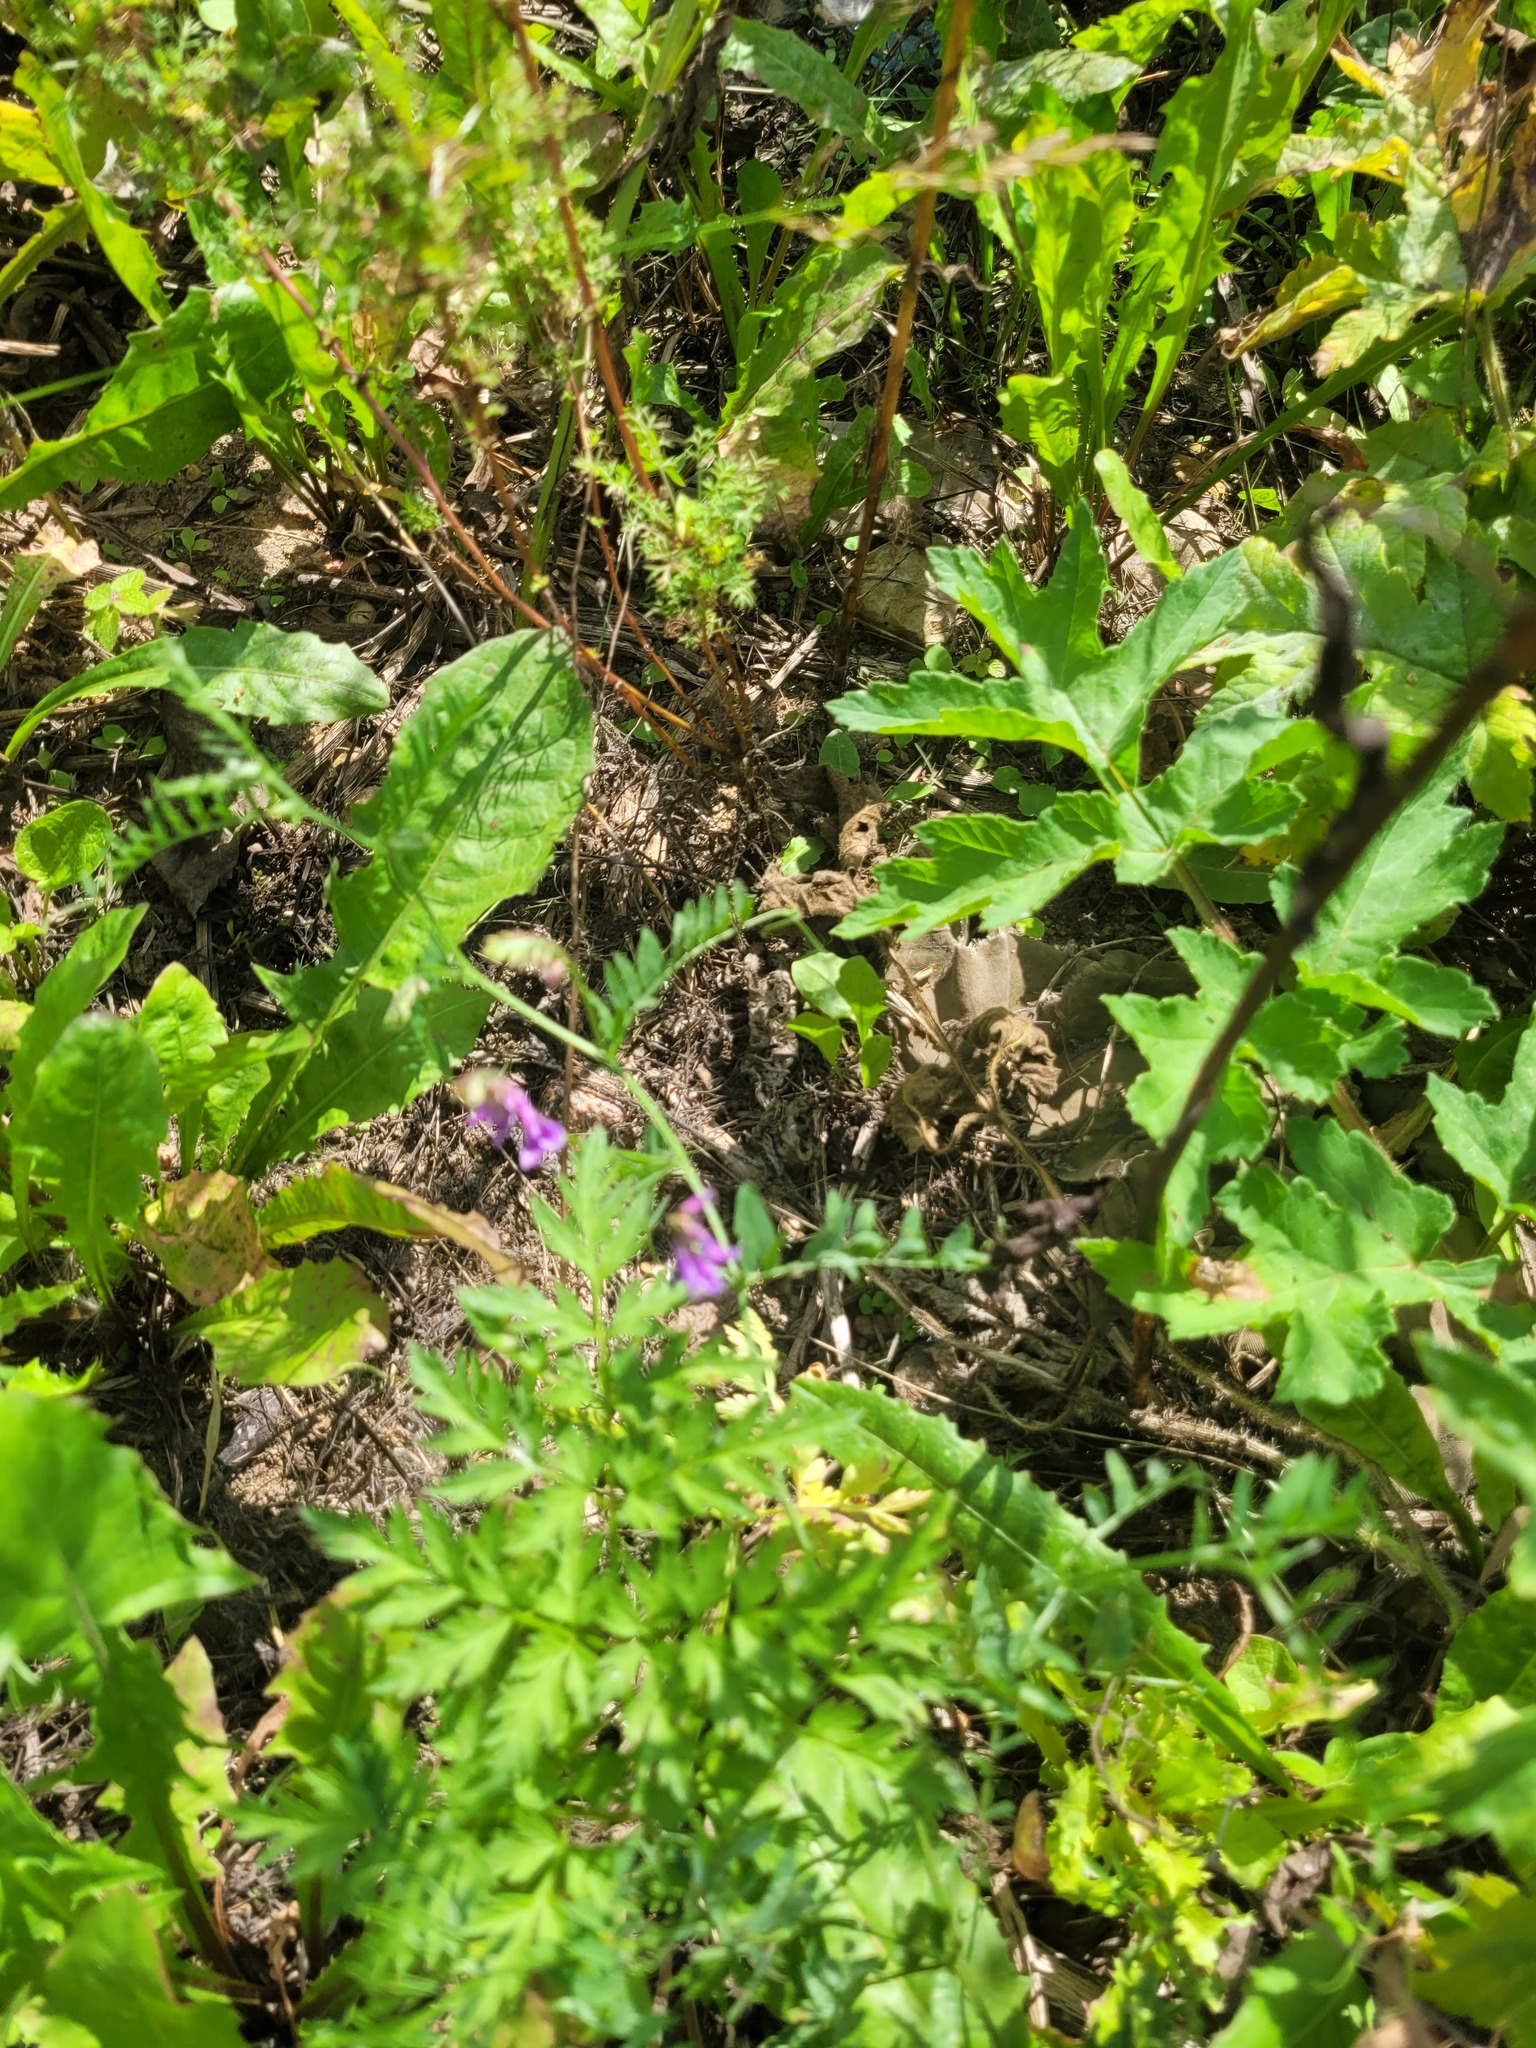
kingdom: Plantae
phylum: Tracheophyta
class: Magnoliopsida
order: Fabales
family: Fabaceae
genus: Vicia
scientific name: Vicia cracca
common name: Bird vetch
